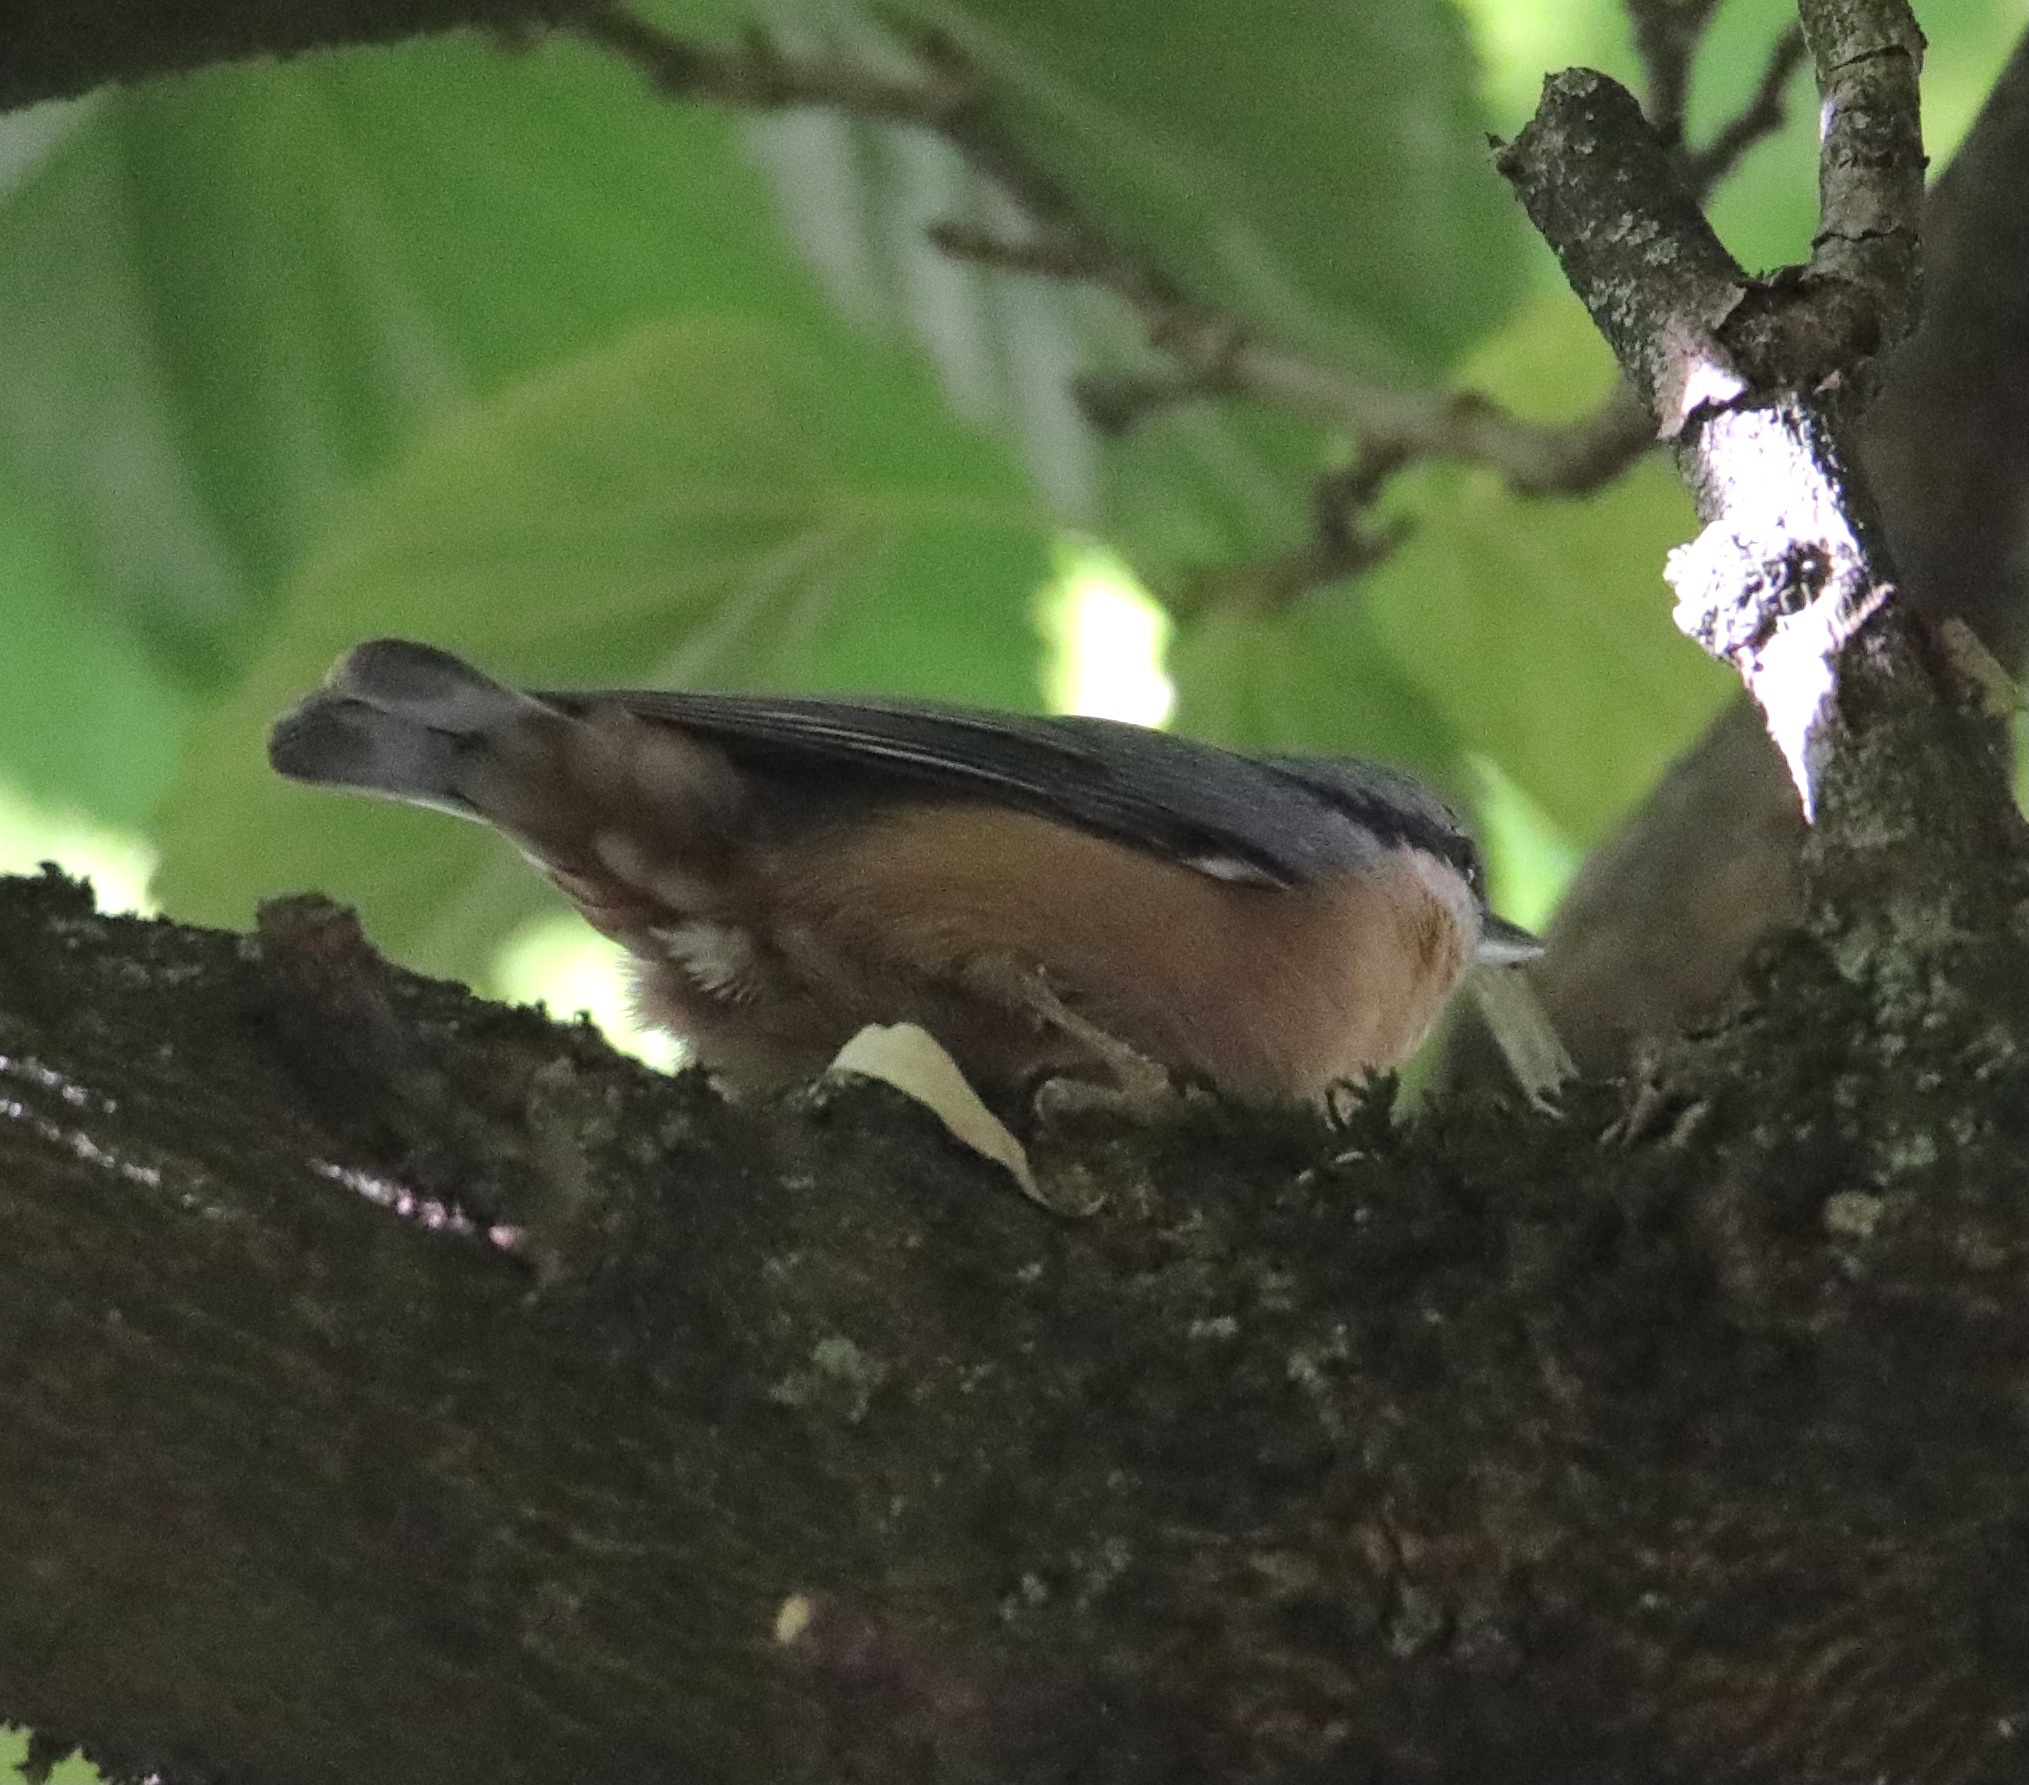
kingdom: Animalia
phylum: Chordata
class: Aves
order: Passeriformes
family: Sittidae
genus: Sitta
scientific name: Sitta europaea
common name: Eurasian nuthatch
